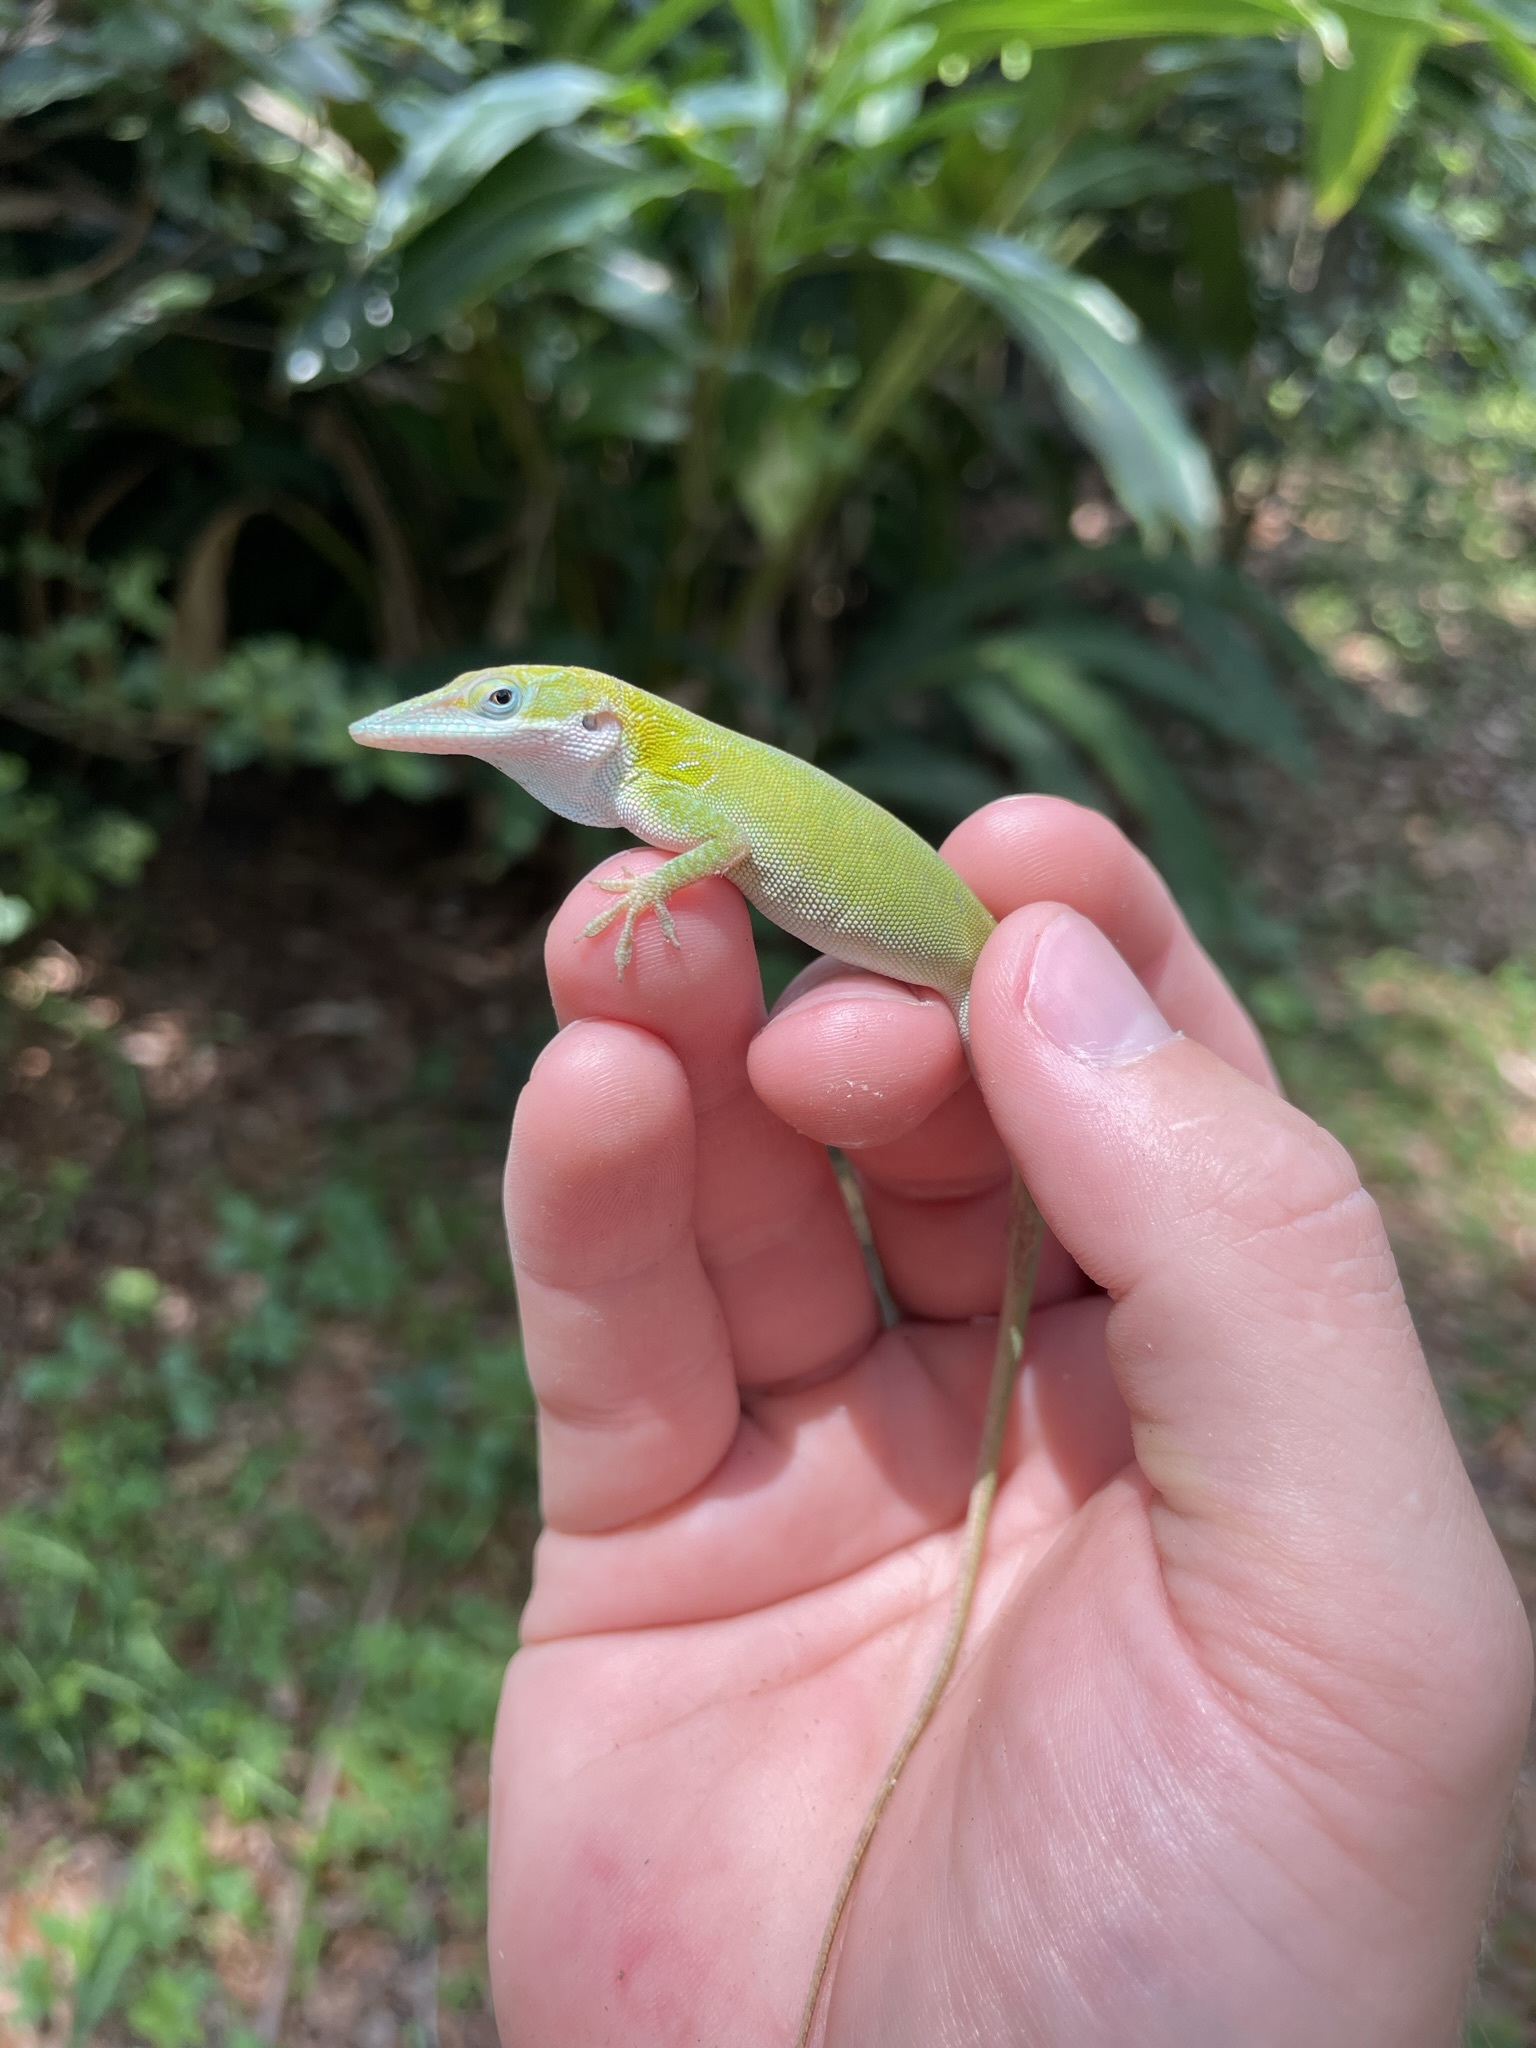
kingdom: Animalia
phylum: Chordata
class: Squamata
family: Dactyloidae
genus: Anolis
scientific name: Anolis allisoni
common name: Allison's anole
